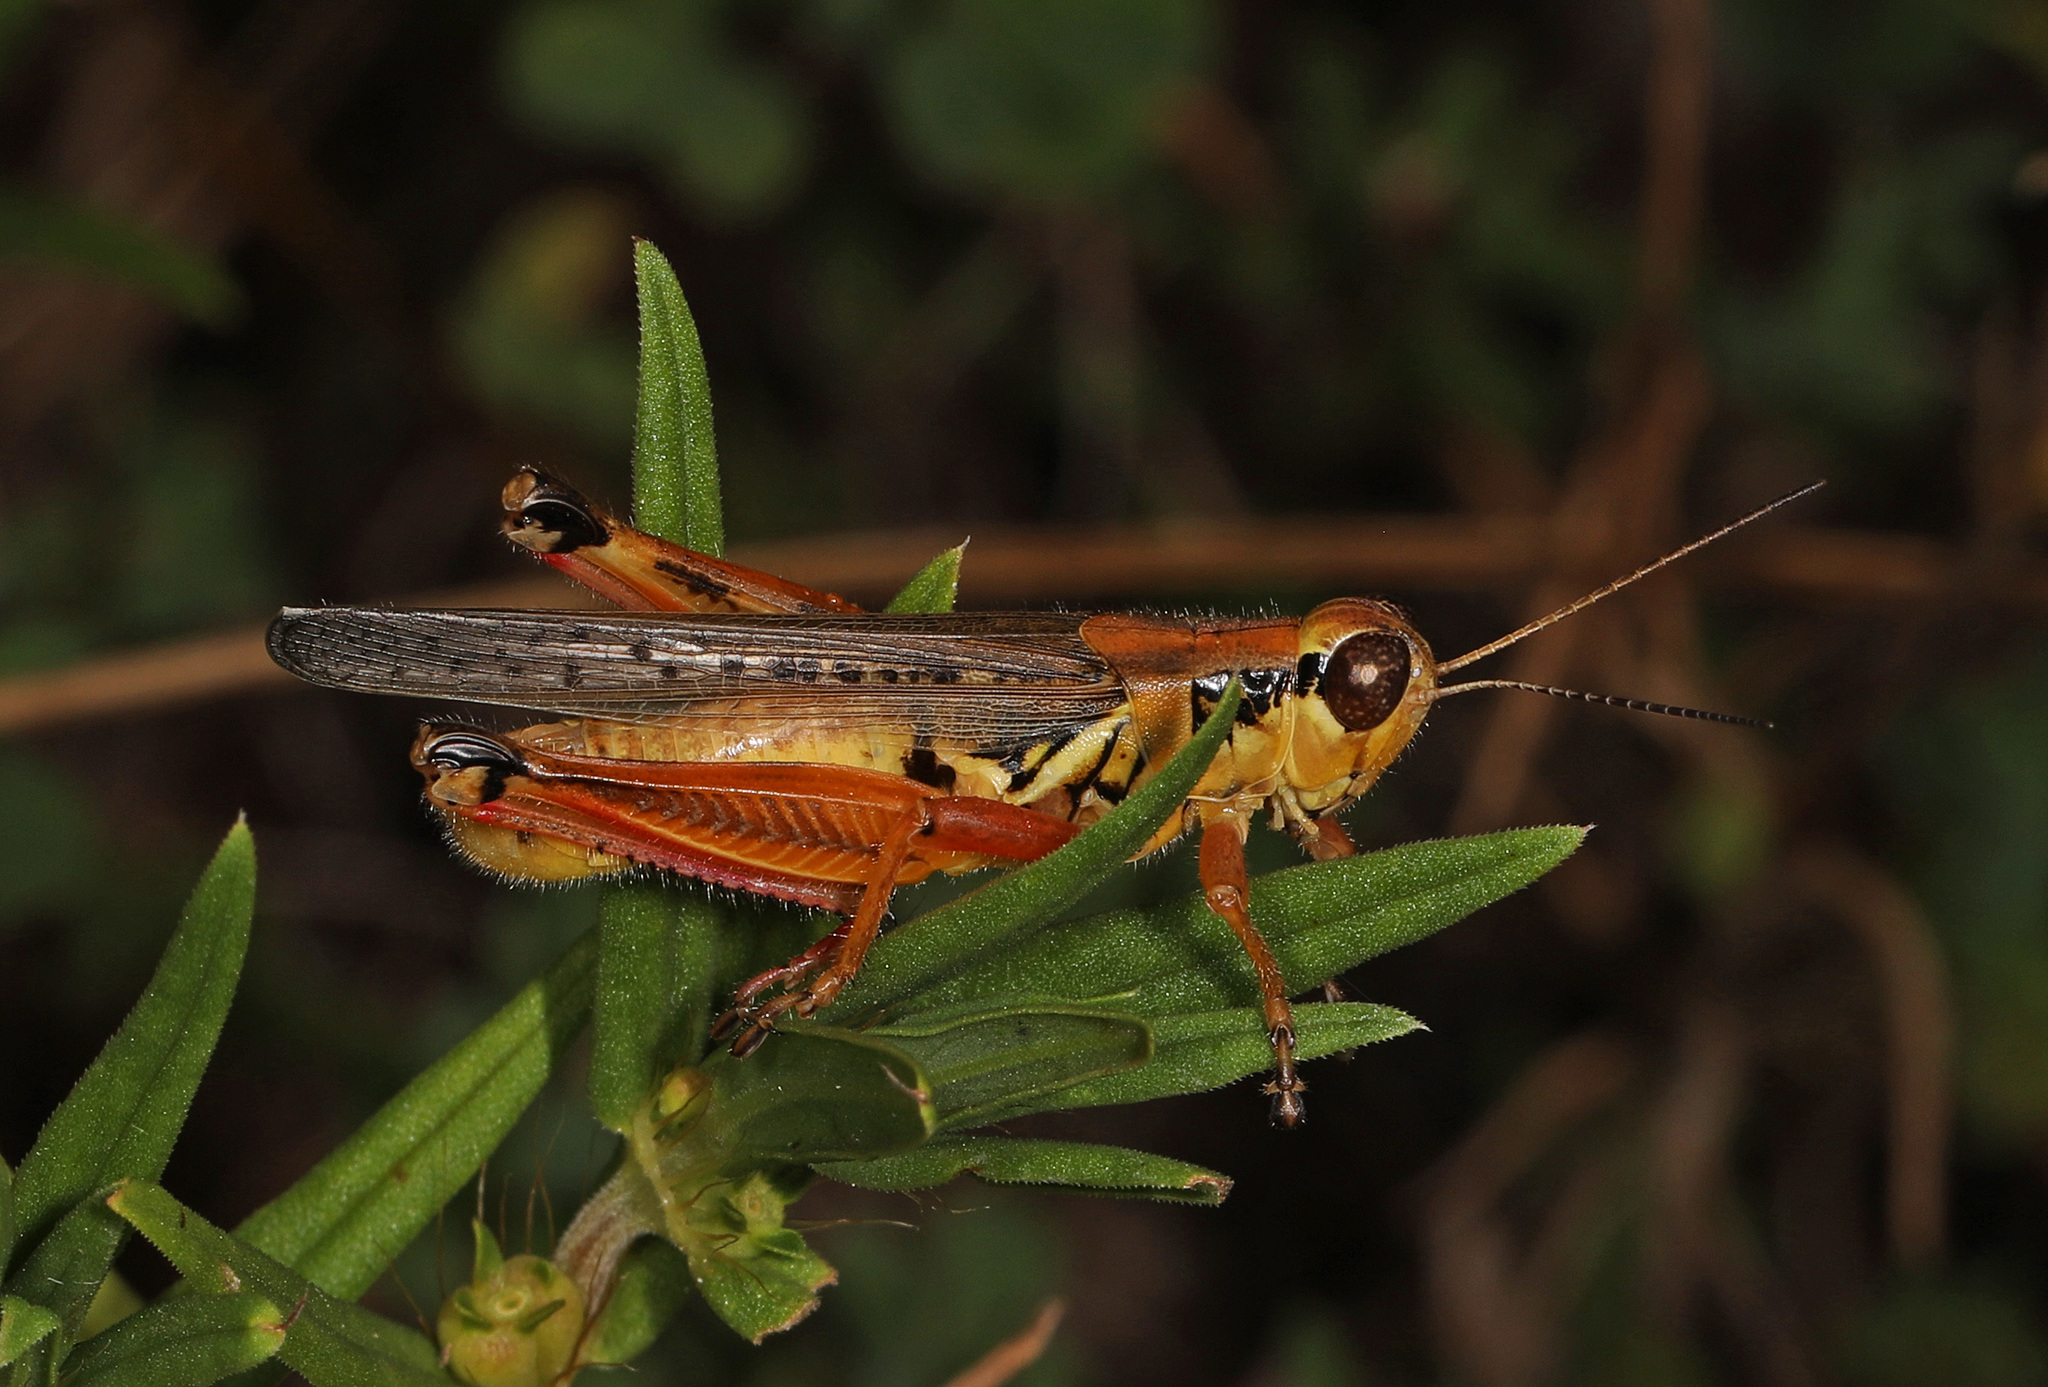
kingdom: Animalia
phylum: Arthropoda
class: Insecta
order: Orthoptera
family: Acrididae
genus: Melanoplus
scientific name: Melanoplus femurrubrum
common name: Red-legged grasshopper
